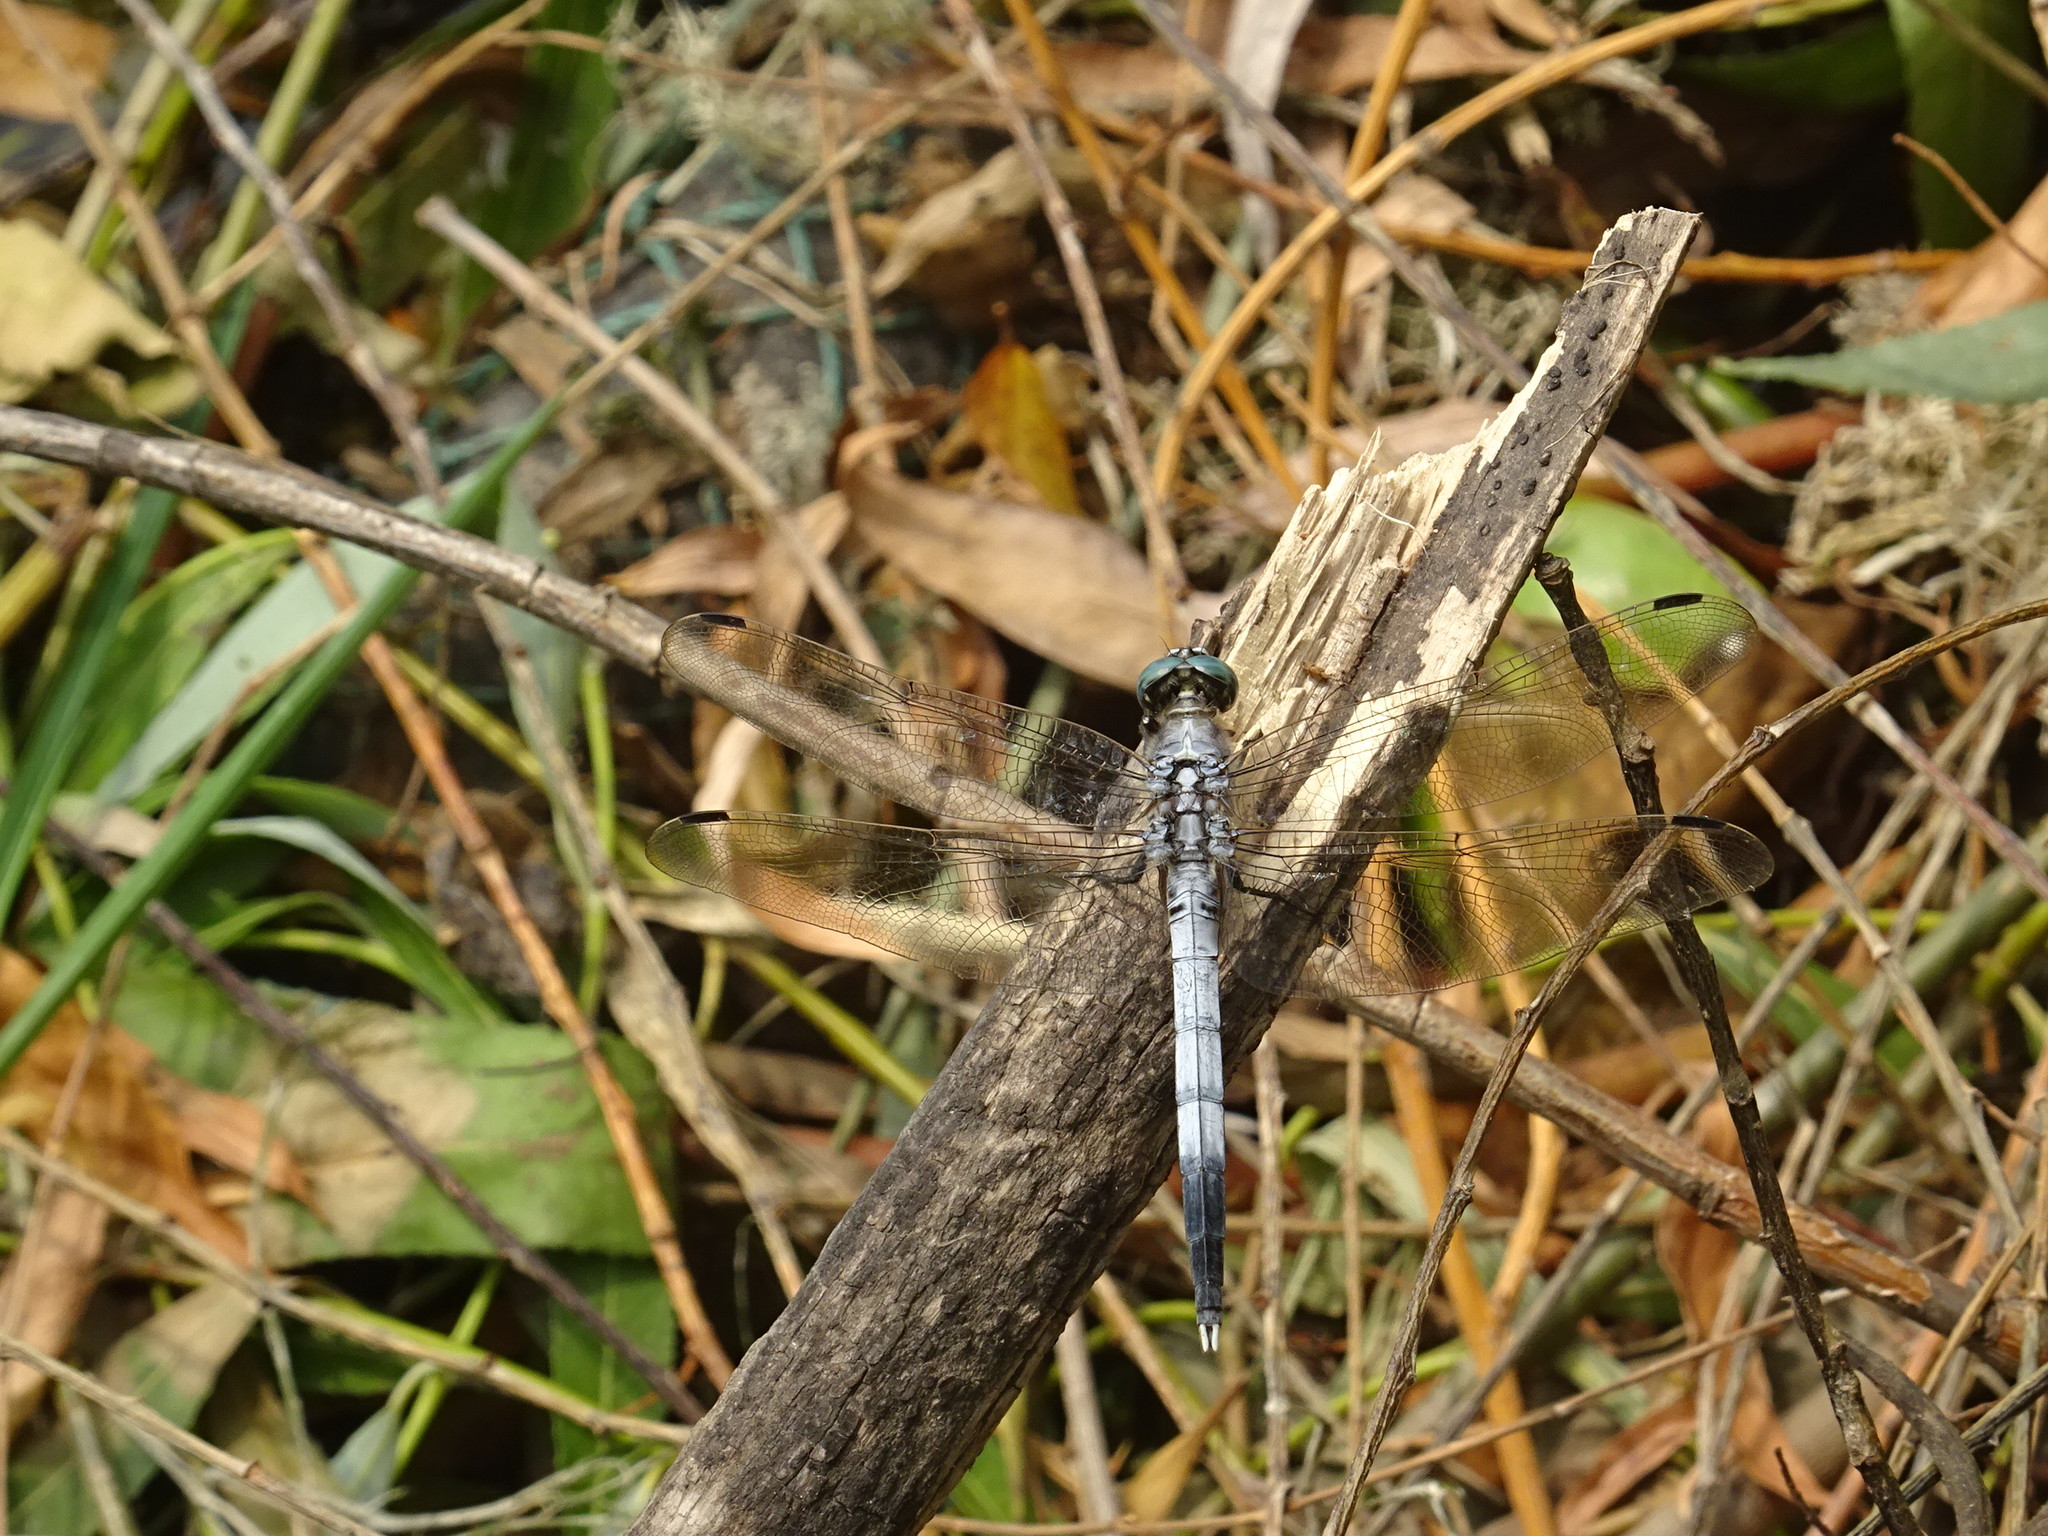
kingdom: Animalia
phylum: Arthropoda
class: Insecta
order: Odonata
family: Libellulidae
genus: Orthetrum
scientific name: Orthetrum albistylum
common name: White-tailed skimmer
